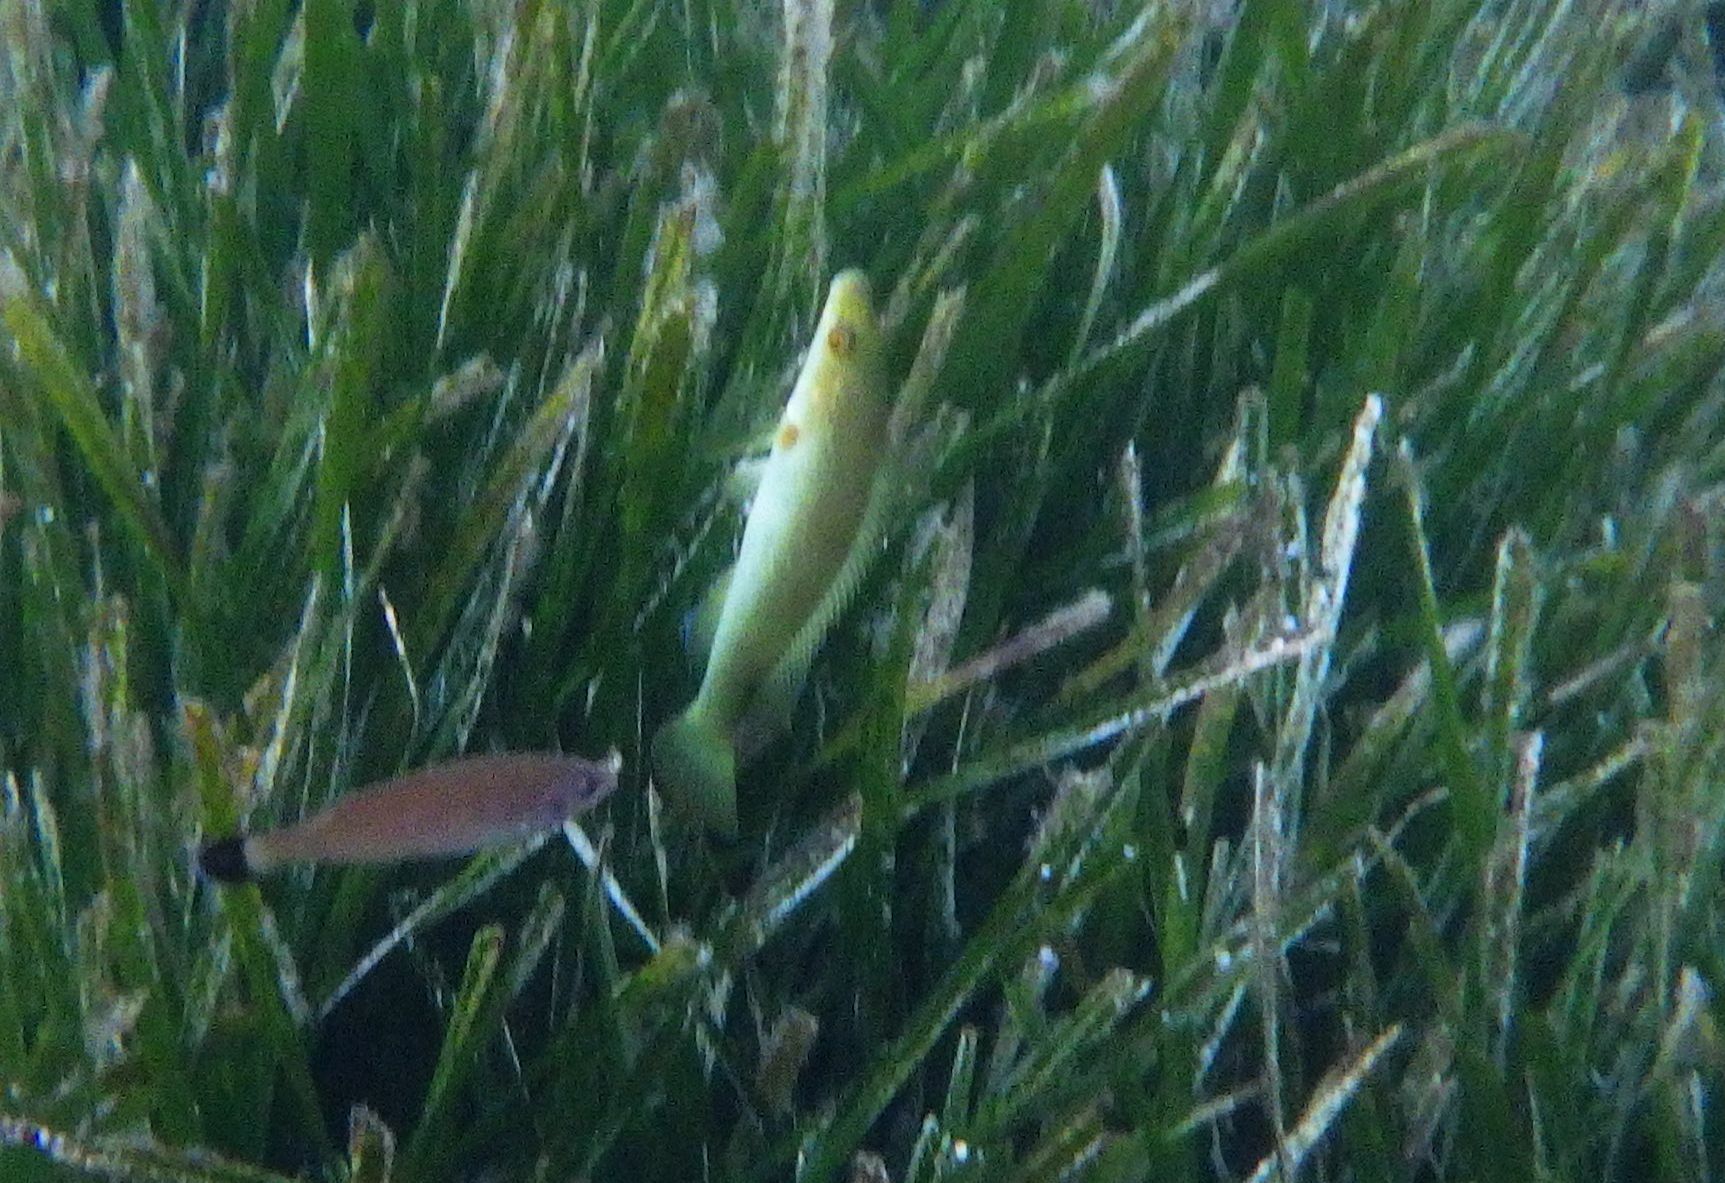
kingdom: Animalia
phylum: Chordata
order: Perciformes
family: Labridae
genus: Labrus
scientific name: Labrus viridis
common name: Green wrasse
